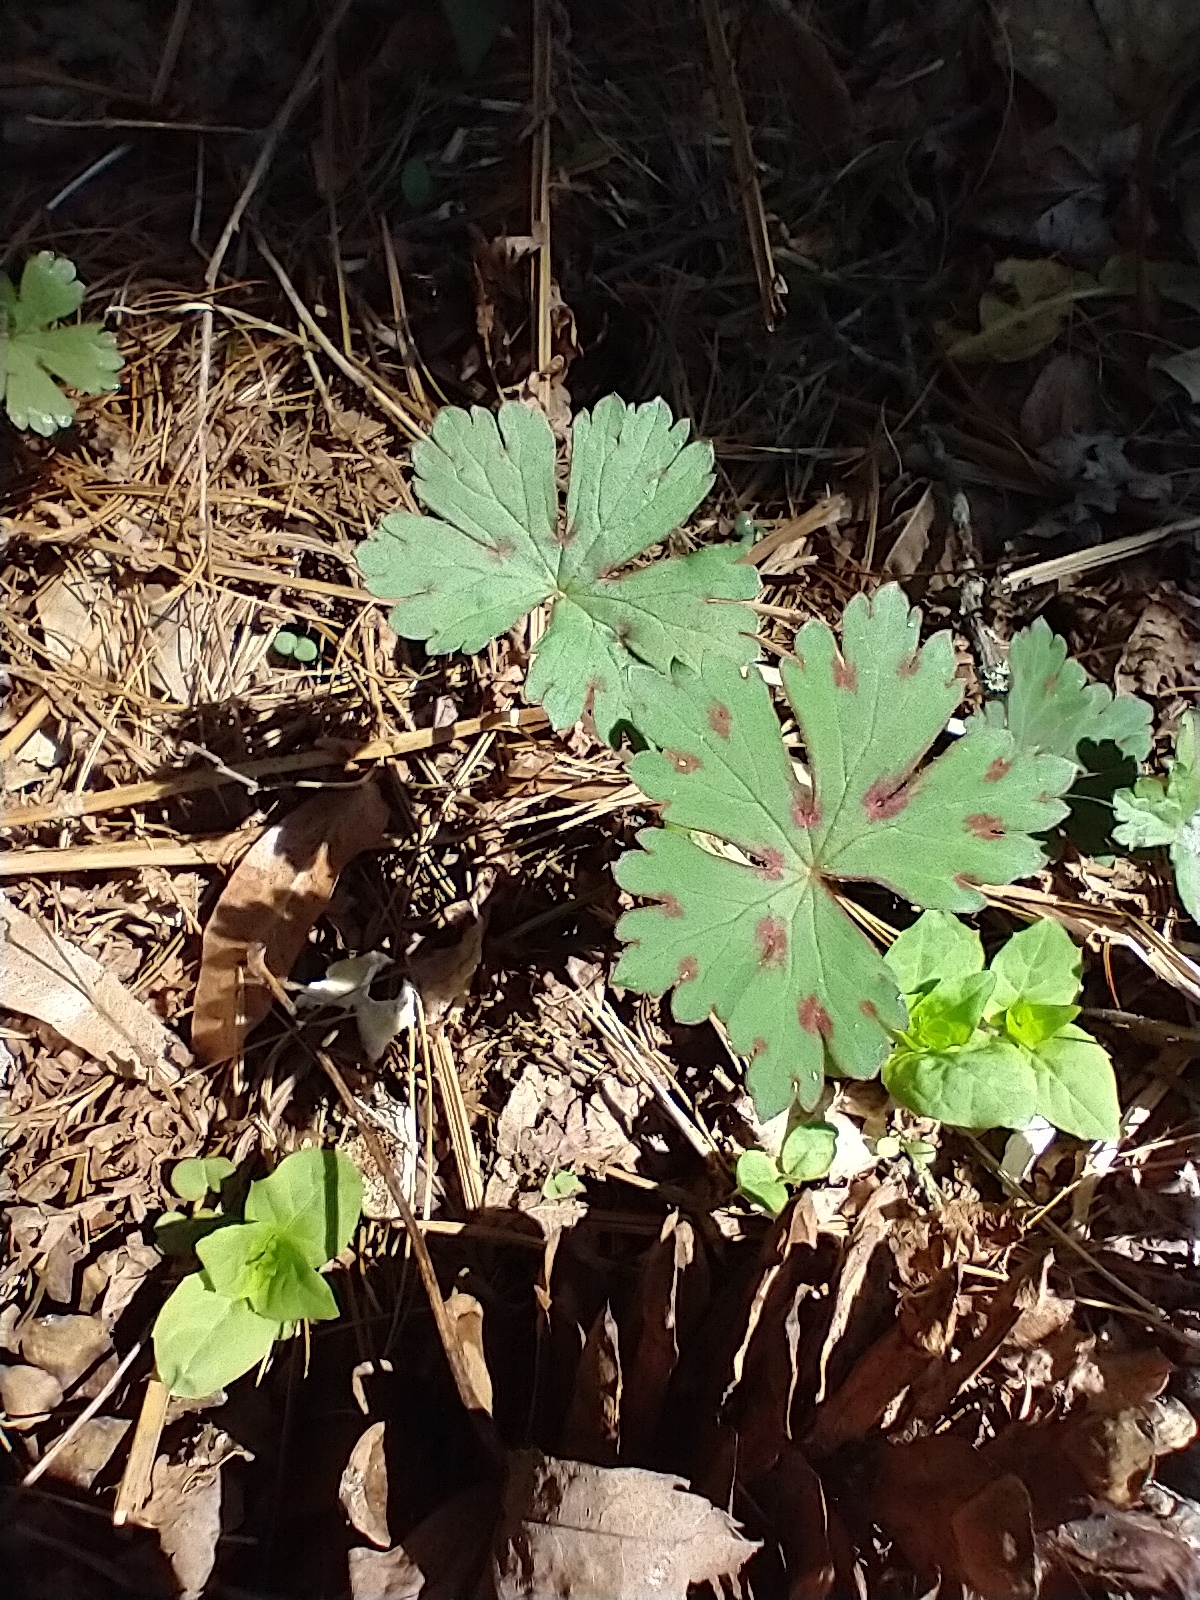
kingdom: Plantae
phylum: Tracheophyta
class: Magnoliopsida
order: Geraniales
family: Geraniaceae
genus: Geranium
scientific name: Geranium thunbergii
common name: Dewdrop crane's-bill
